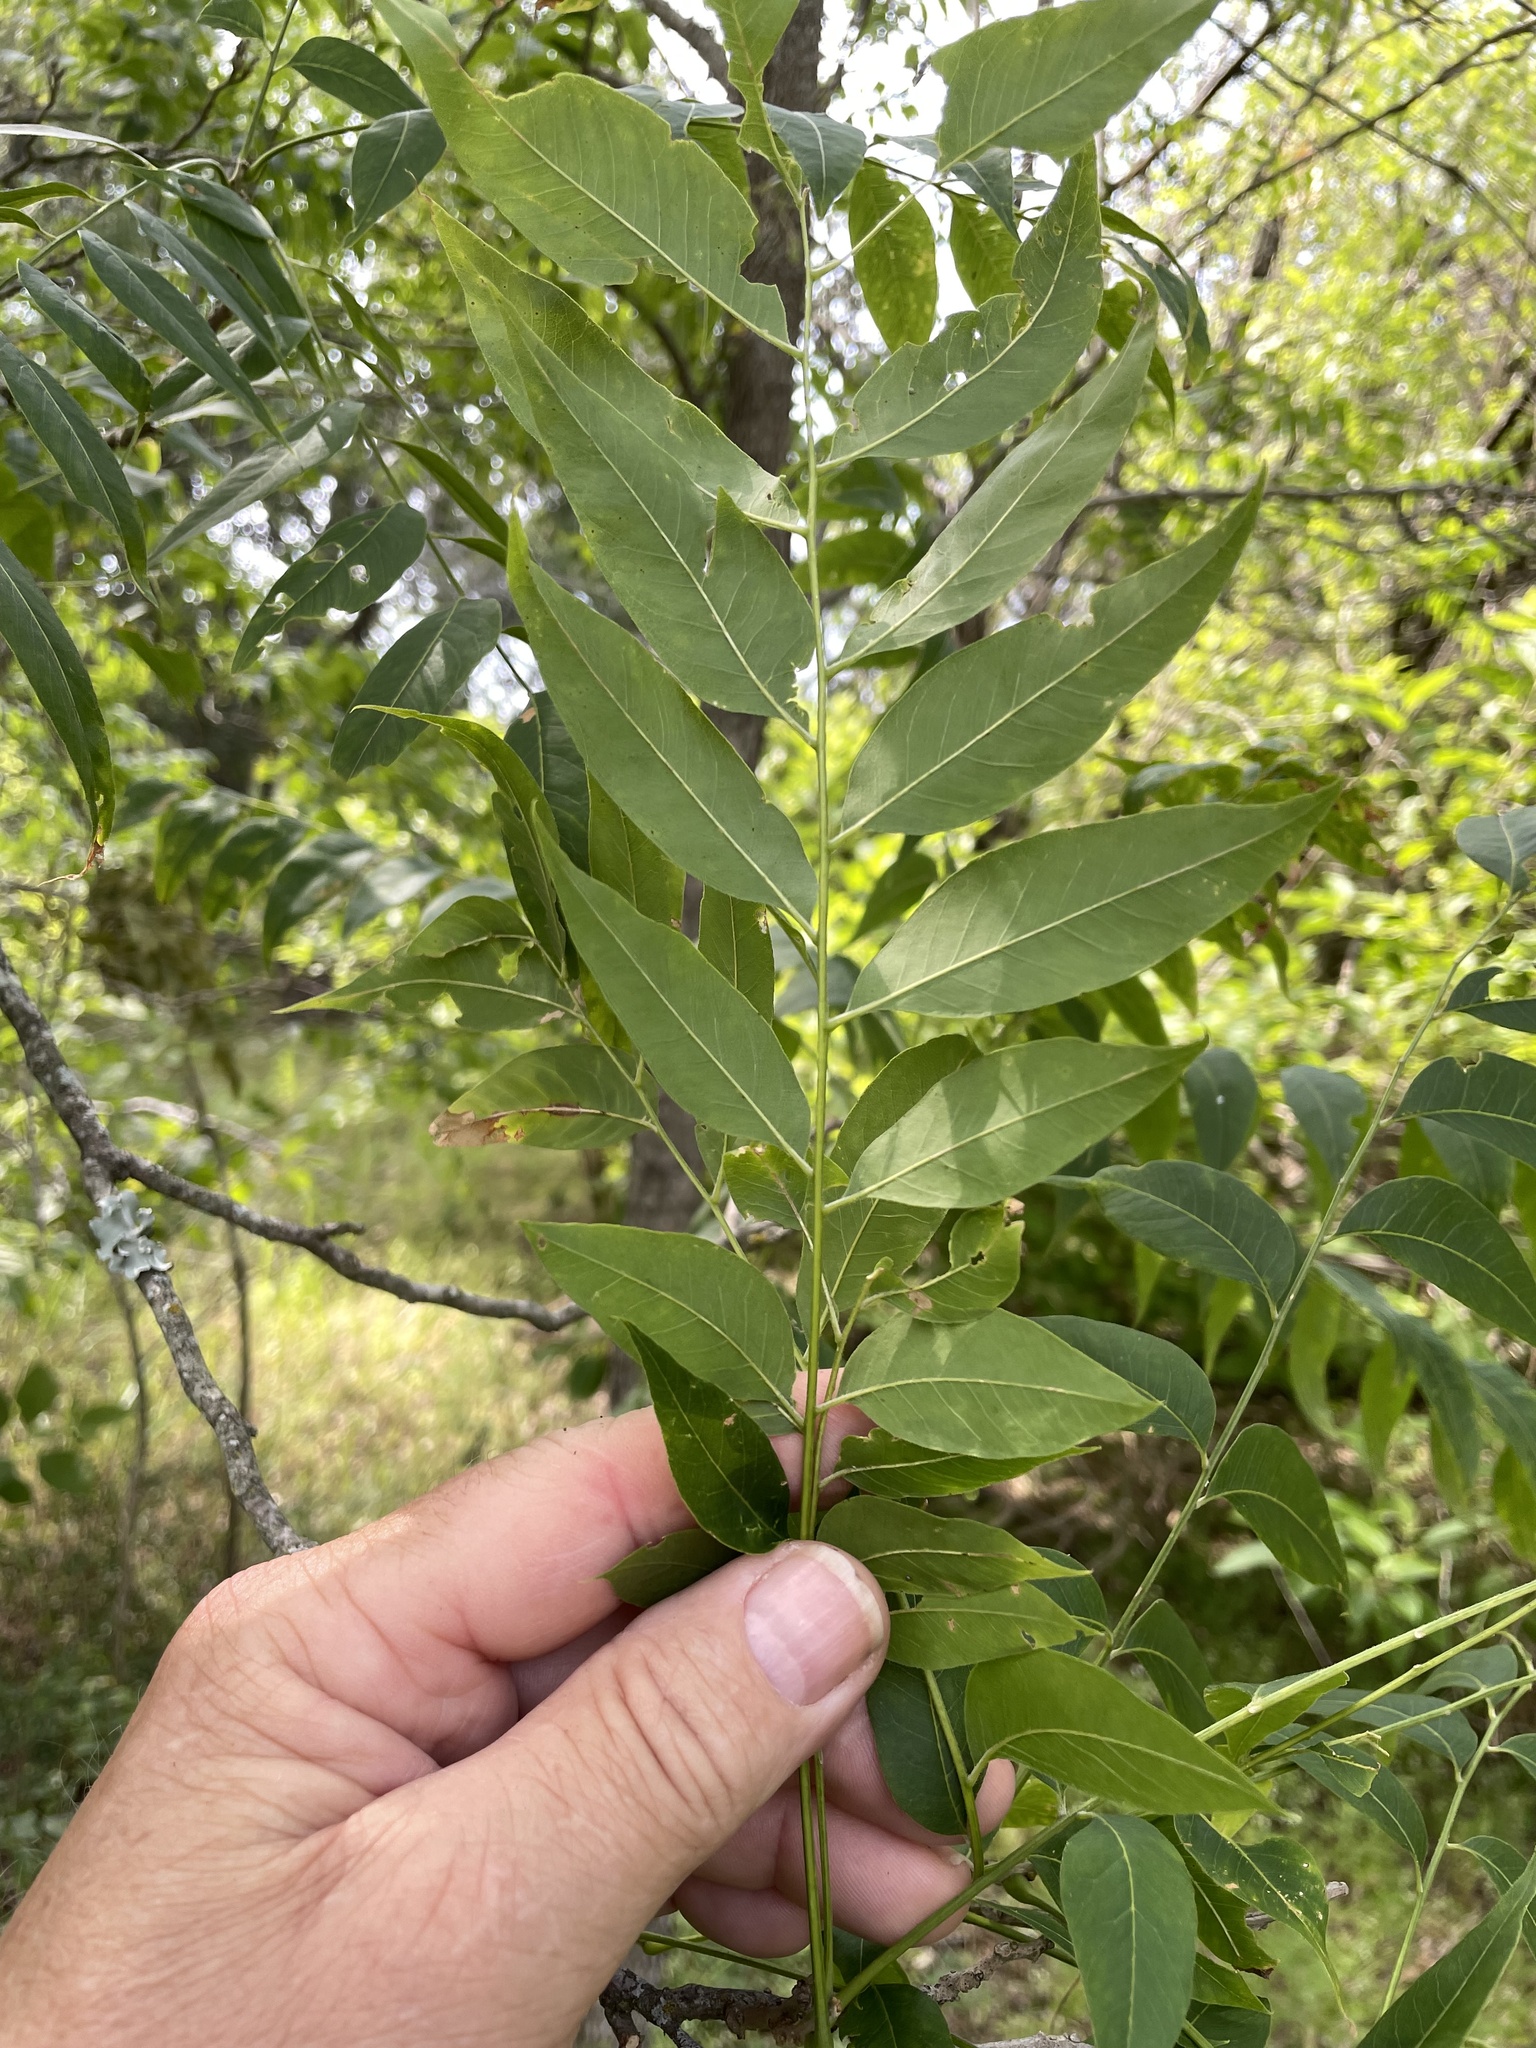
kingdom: Plantae
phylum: Tracheophyta
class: Magnoliopsida
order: Sapindales
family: Sapindaceae
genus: Sapindus
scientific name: Sapindus drummondii
